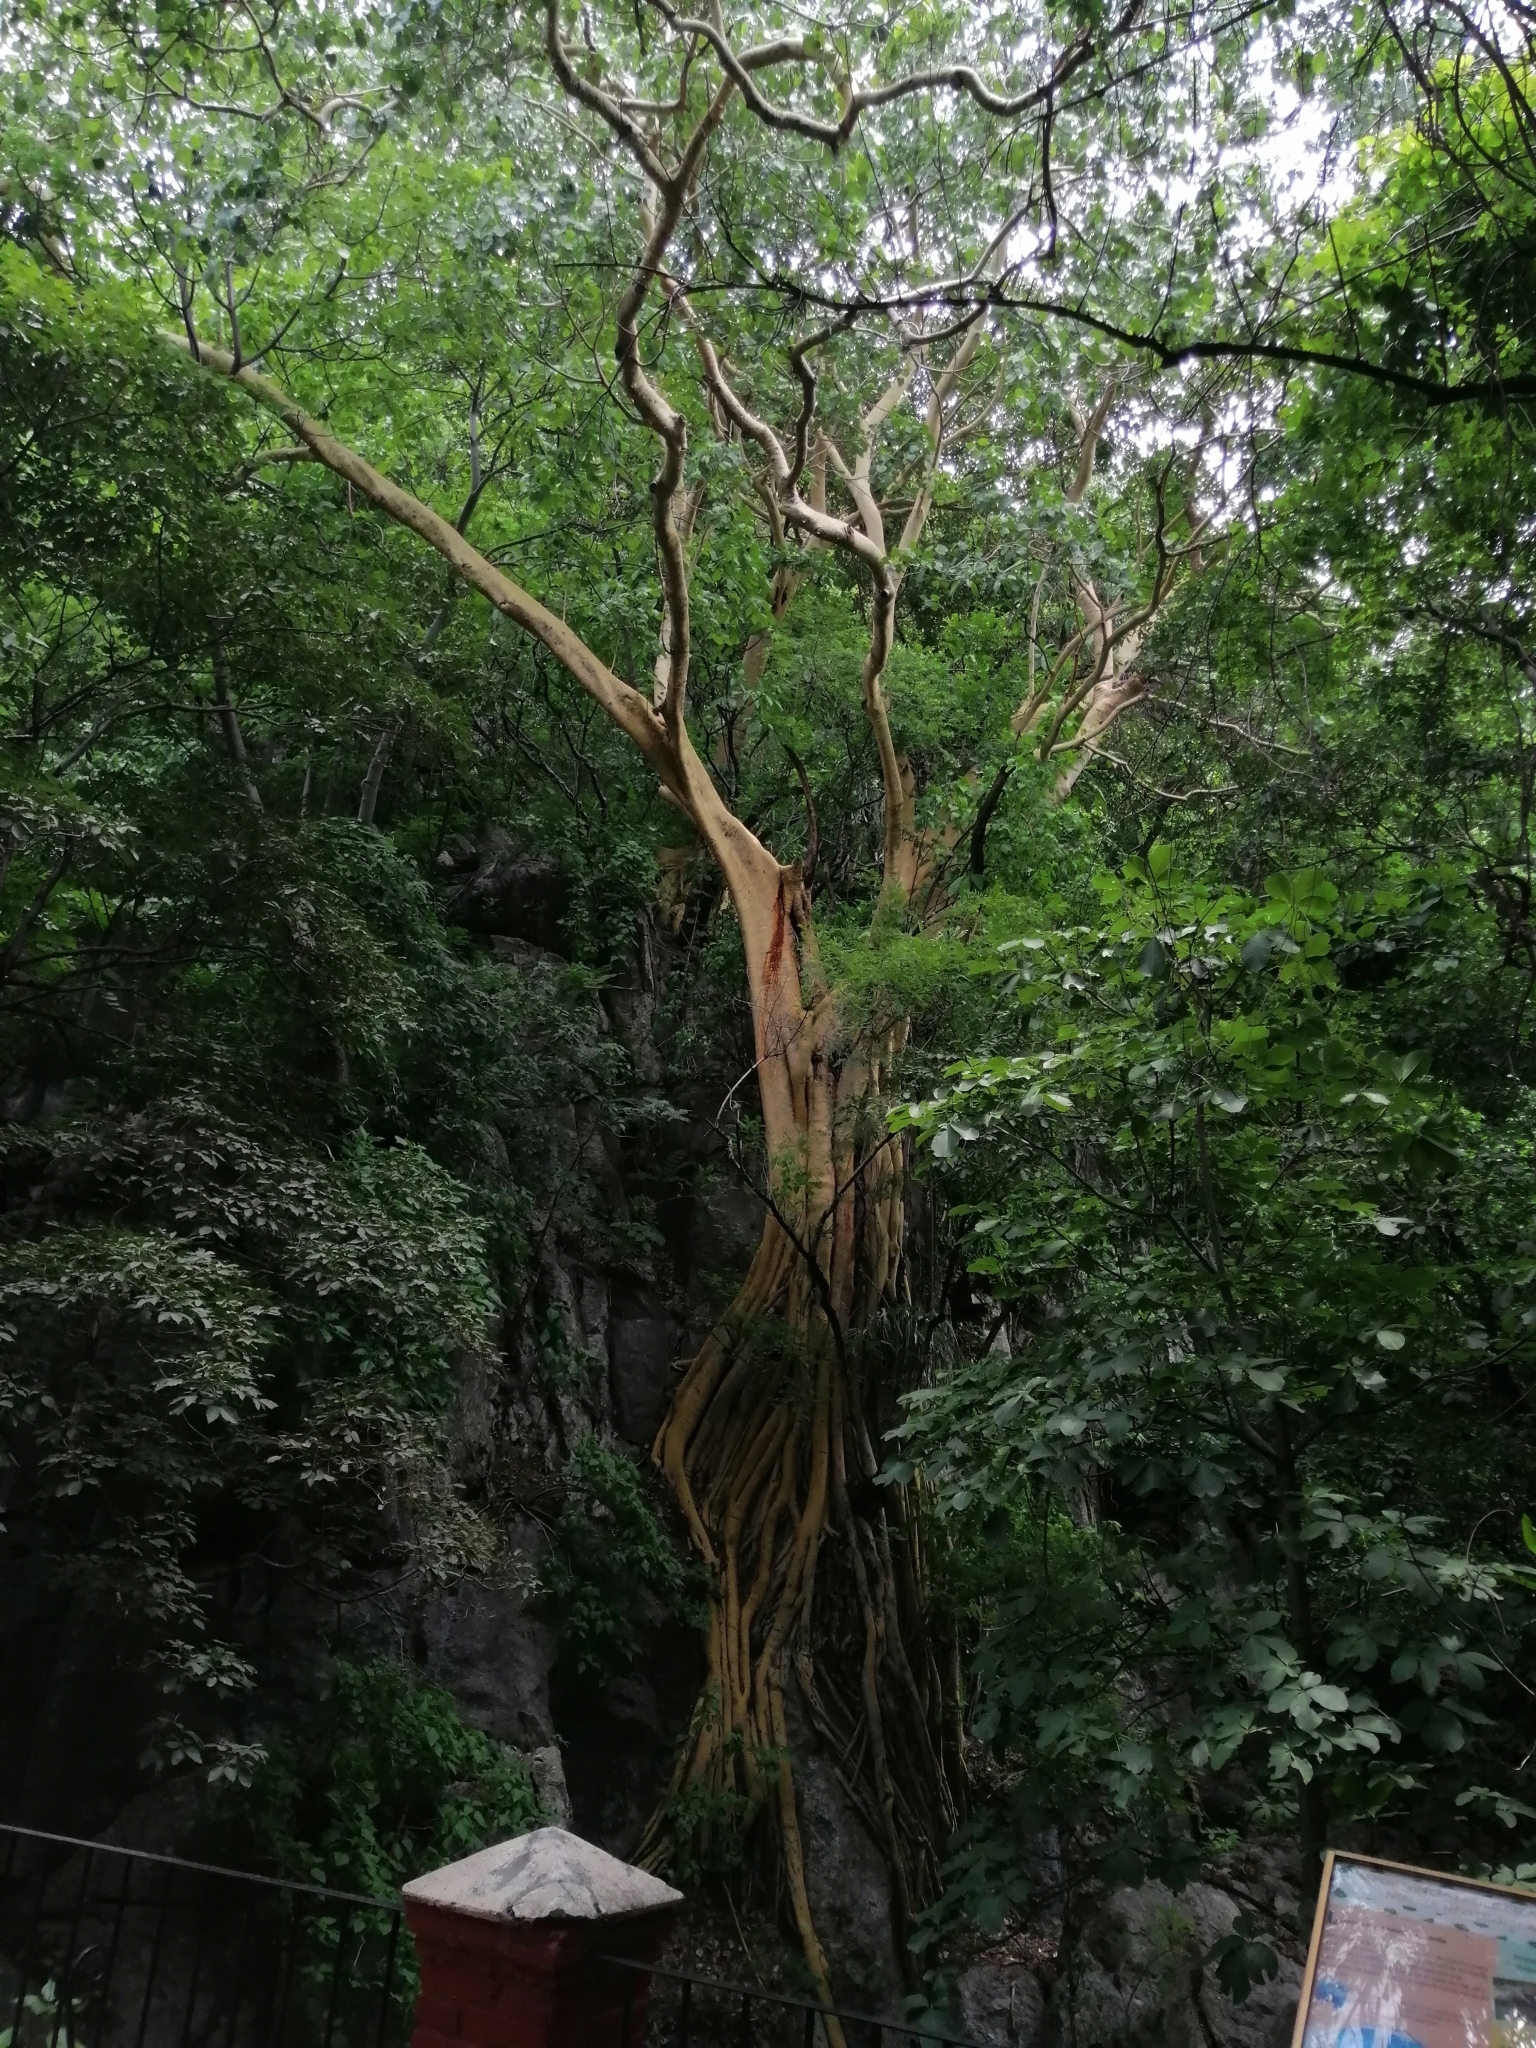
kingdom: Plantae
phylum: Tracheophyta
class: Magnoliopsida
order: Rosales
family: Moraceae
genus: Ficus
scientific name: Ficus petiolaris
